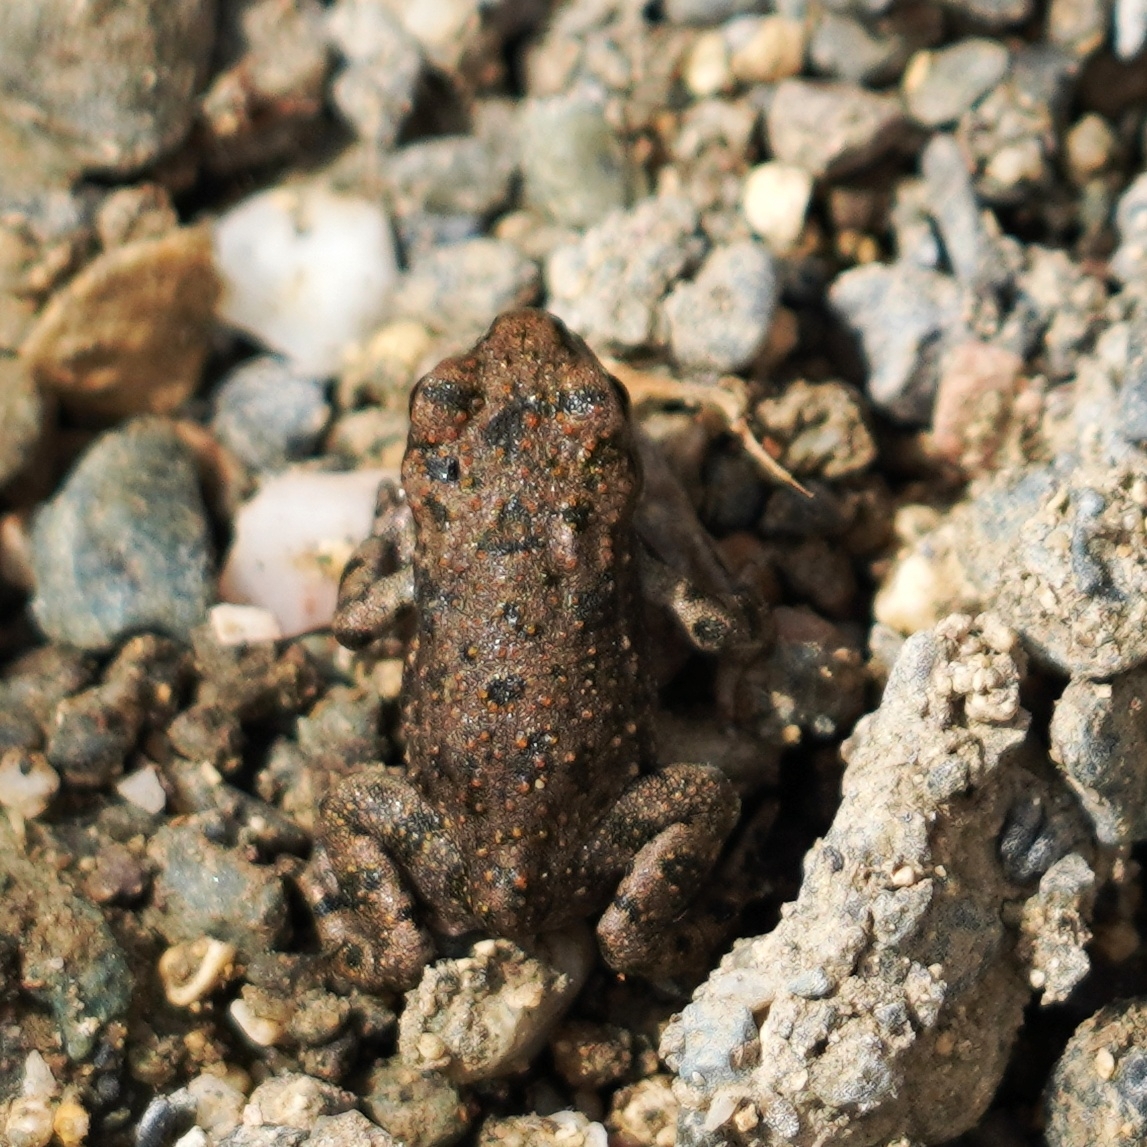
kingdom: Animalia
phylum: Chordata
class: Amphibia
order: Anura
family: Bufonidae
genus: Bufotes
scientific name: Bufotes viridis
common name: European green toad
